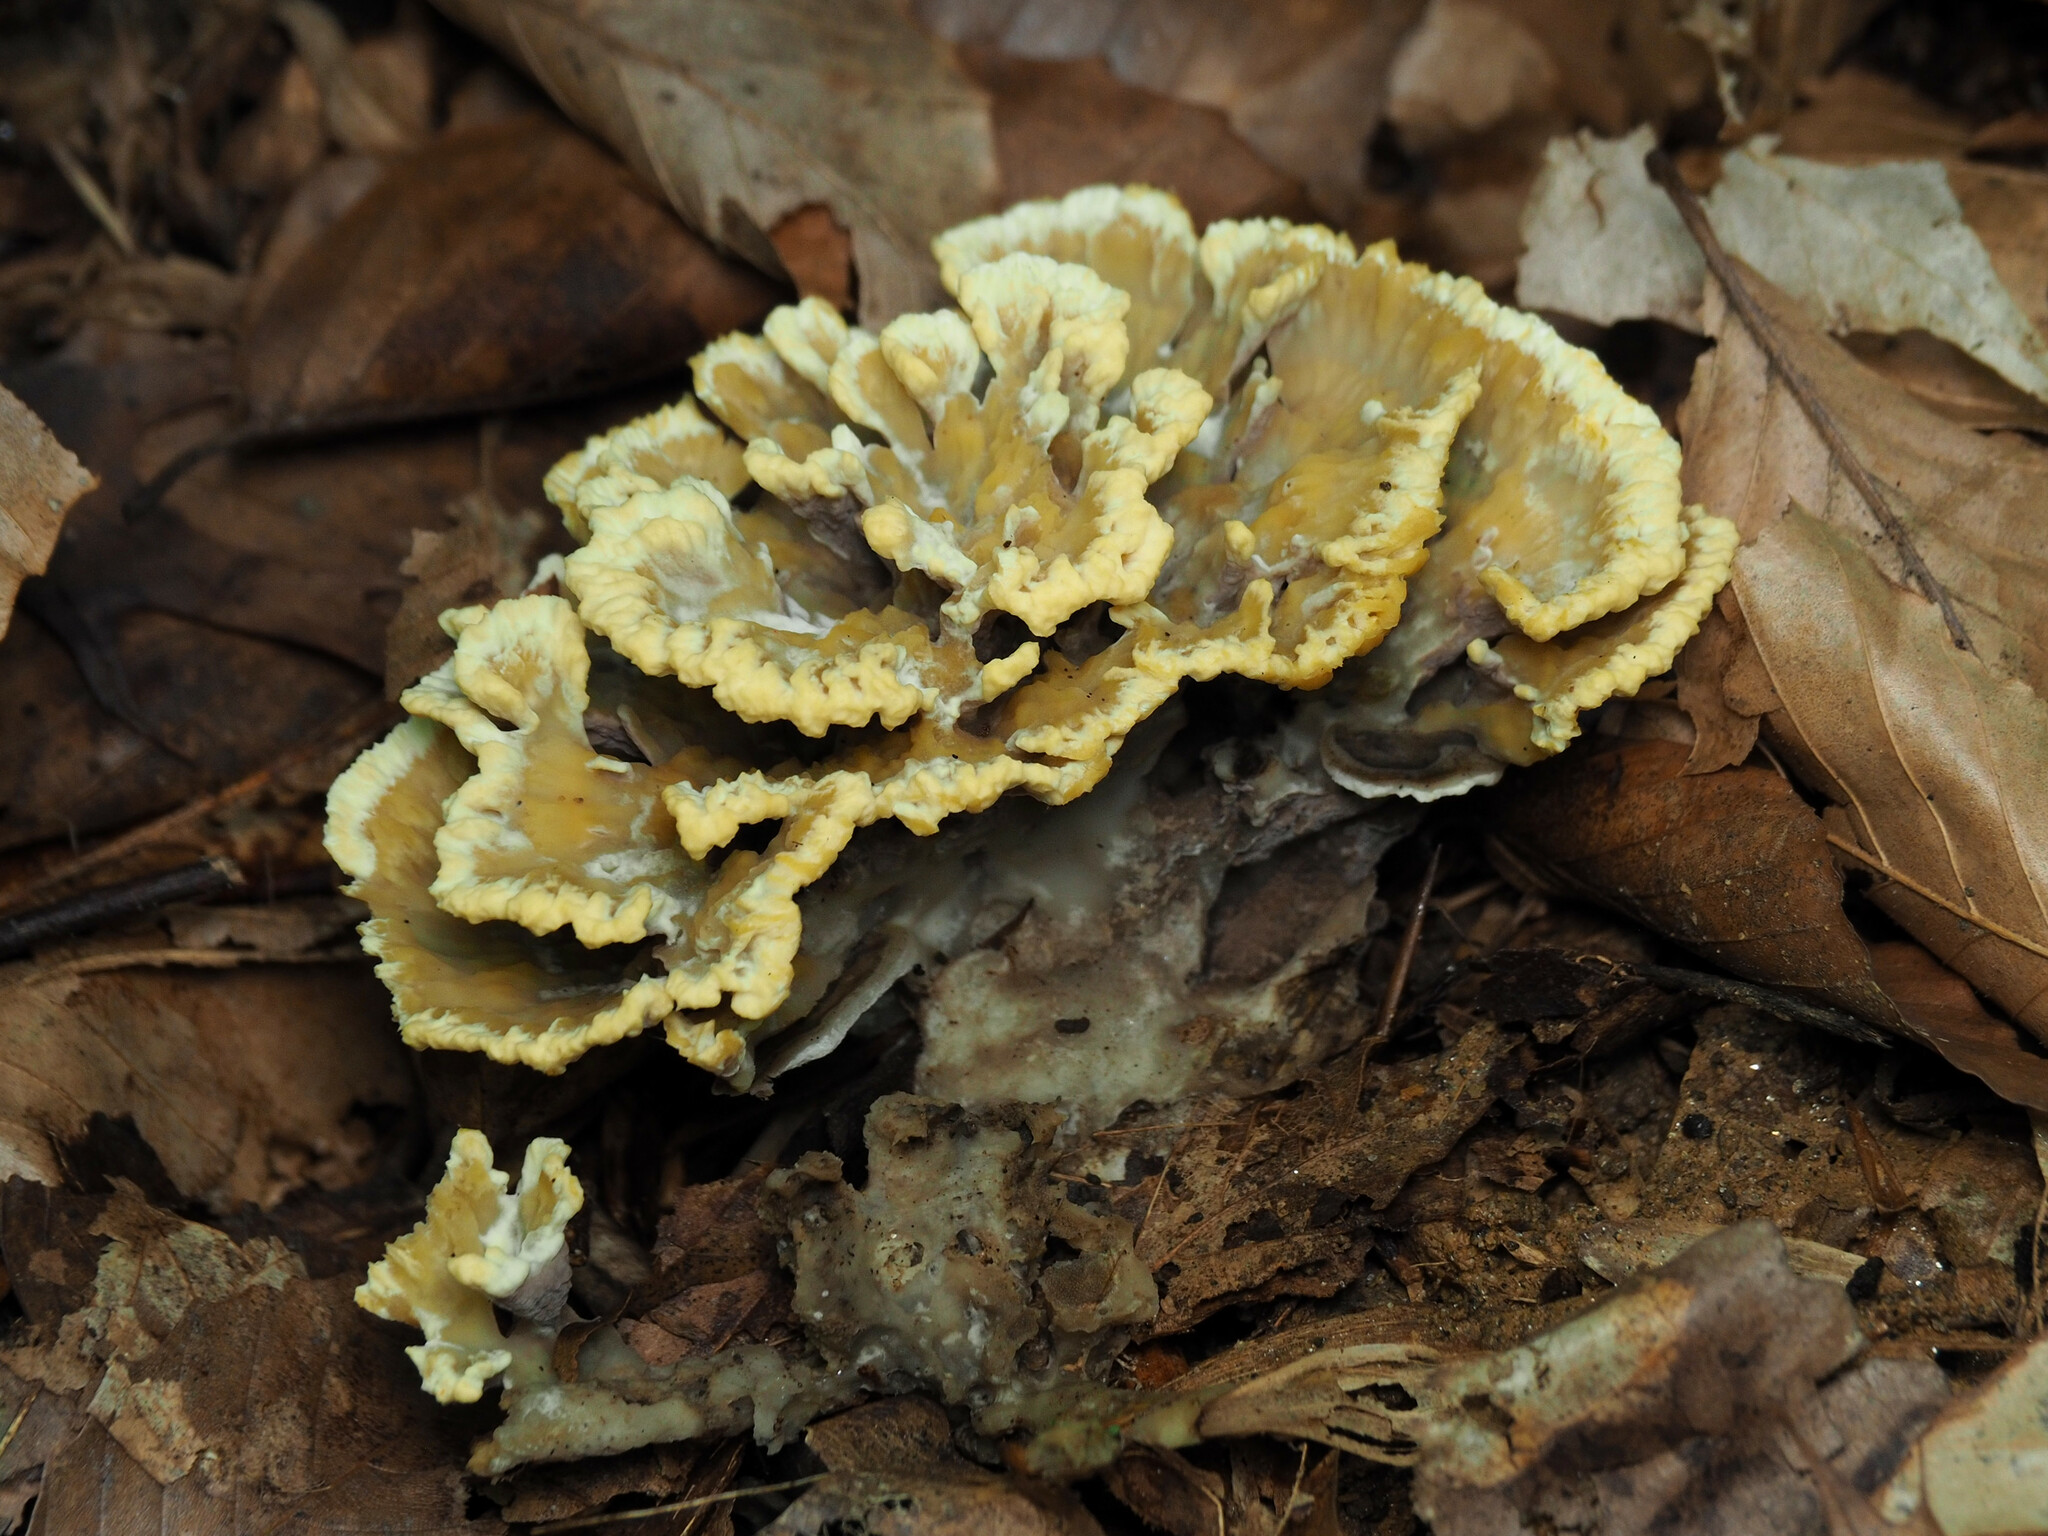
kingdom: Fungi
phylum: Basidiomycota
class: Agaricomycetes
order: Thelephorales
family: Thelephoraceae
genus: Thelephora
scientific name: Thelephora vialis
